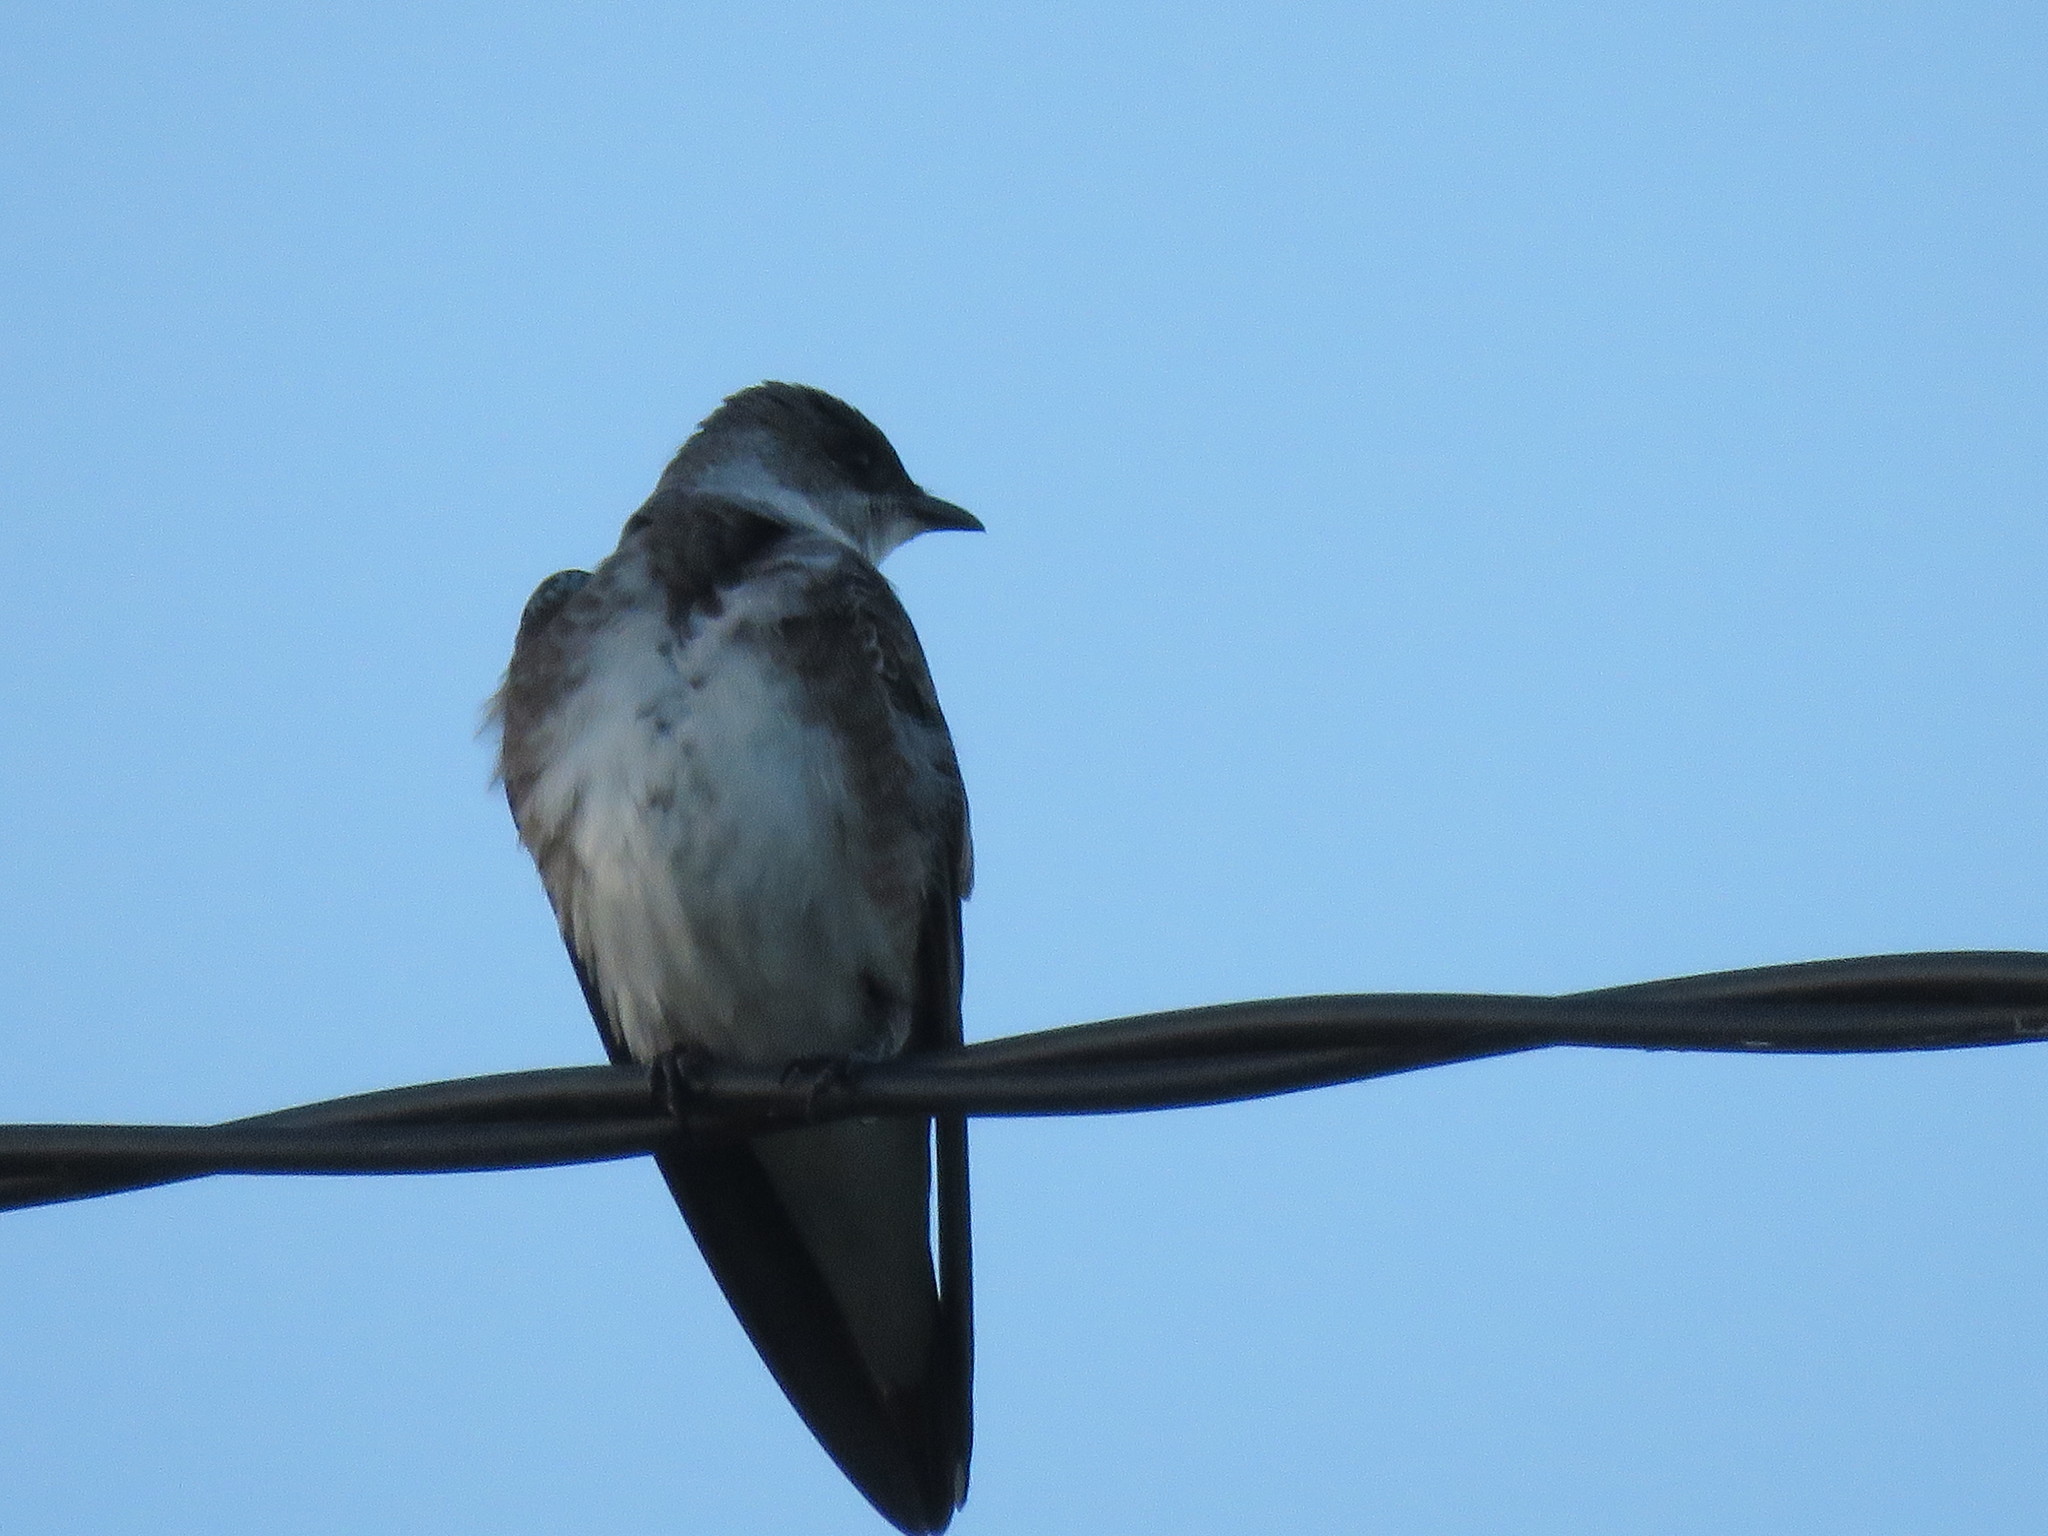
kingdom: Animalia
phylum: Chordata
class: Aves
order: Passeriformes
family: Hirundinidae
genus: Progne
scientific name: Progne tapera
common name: Brown-chested martin
